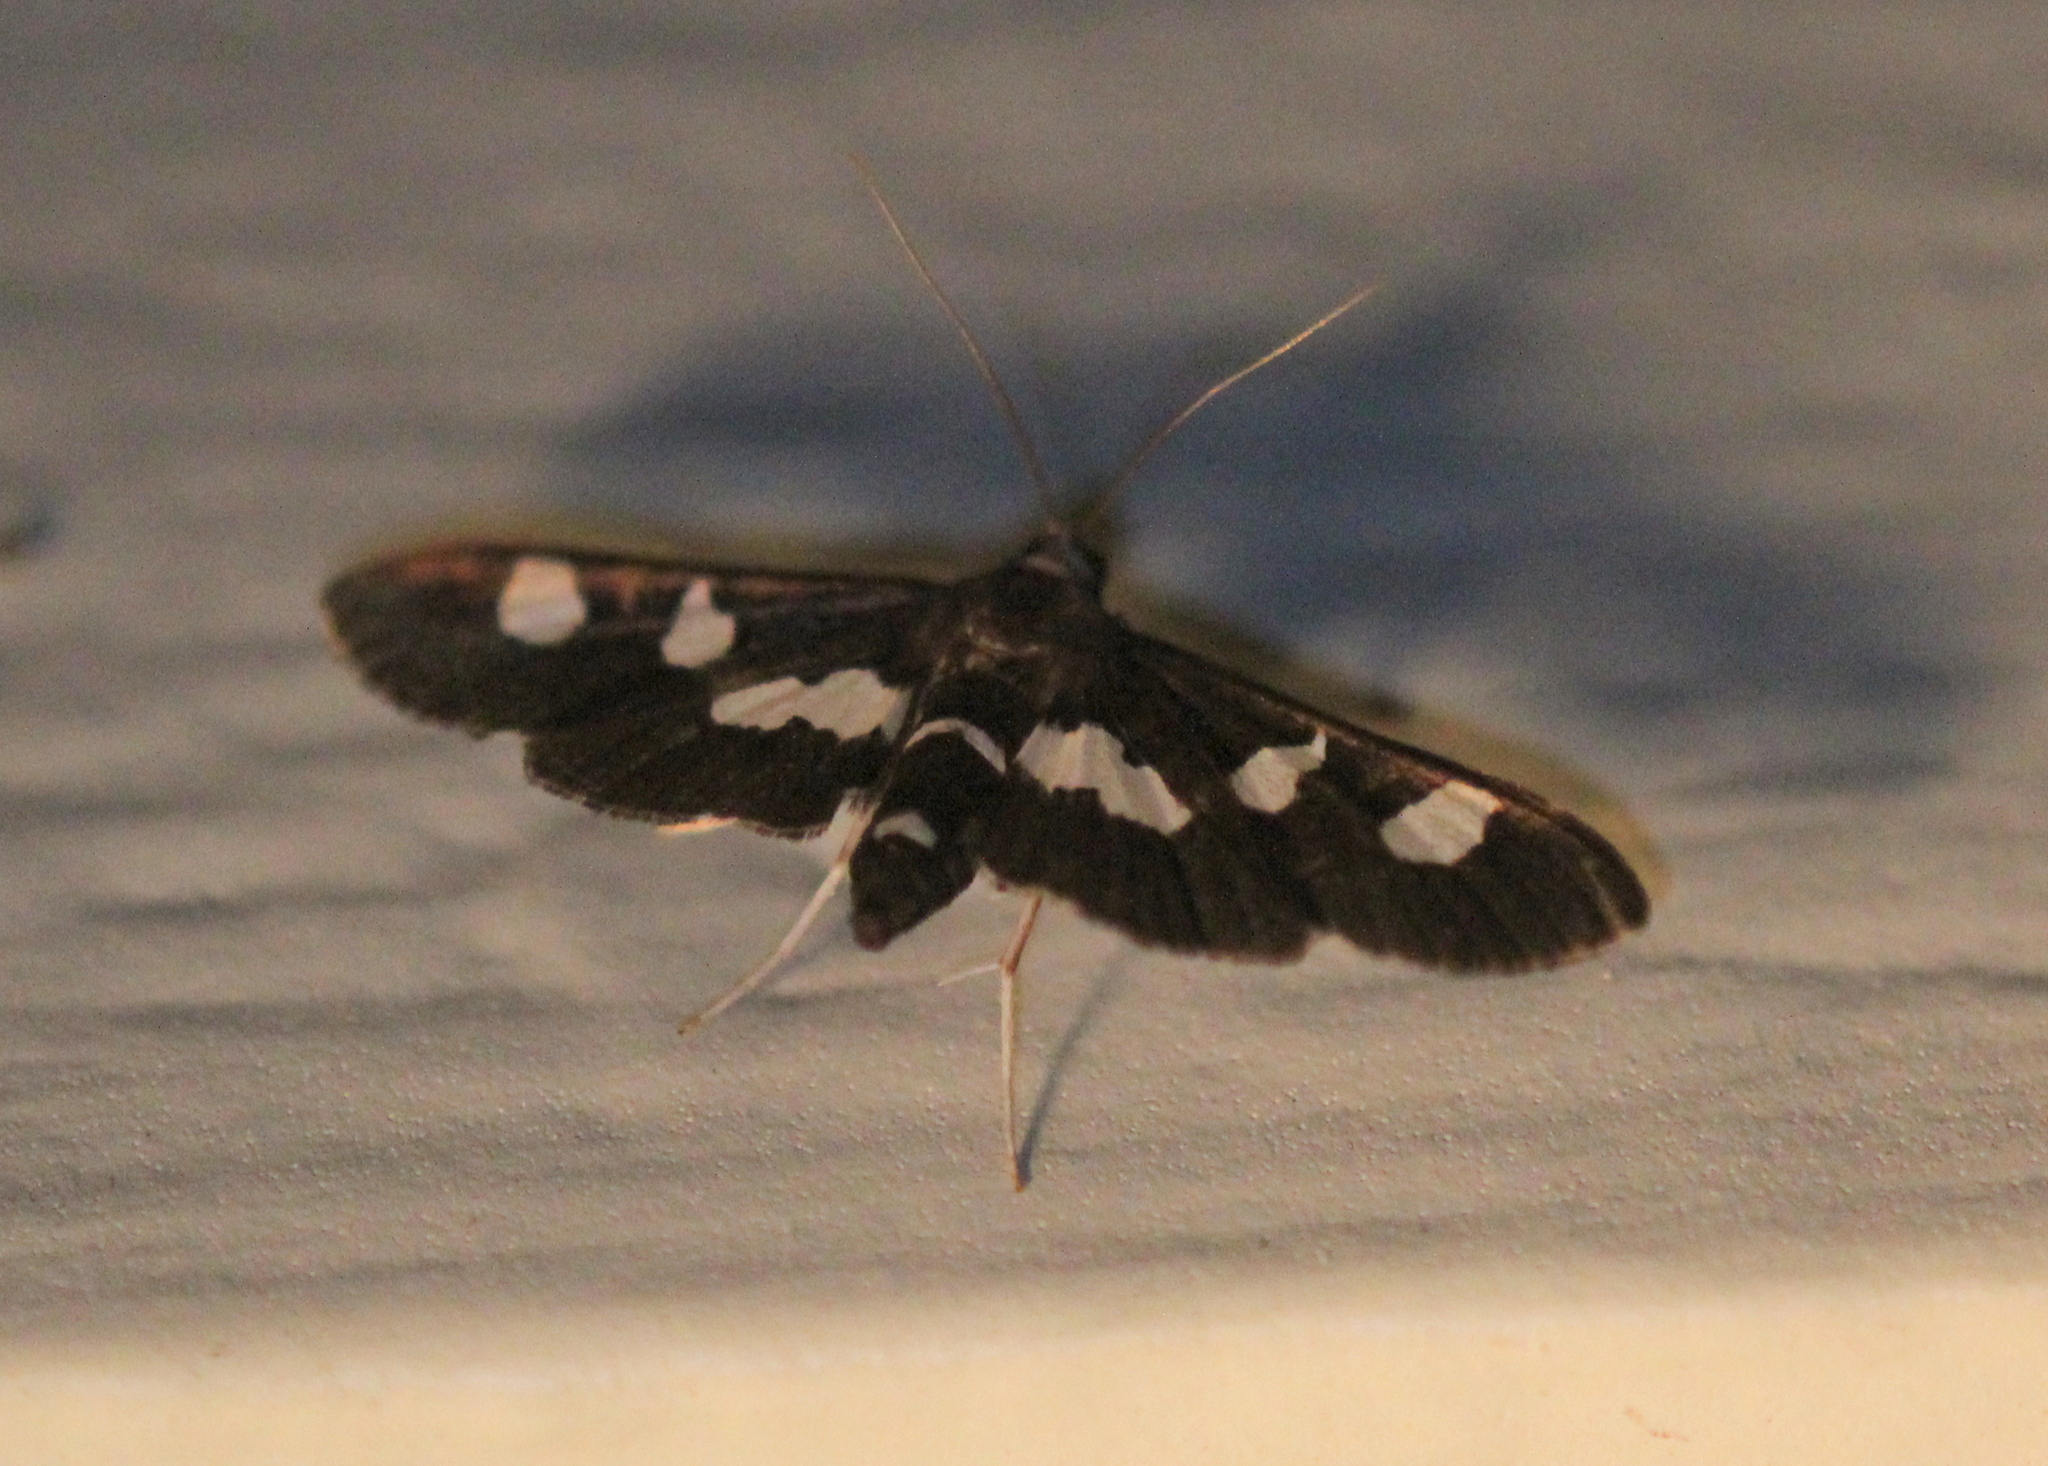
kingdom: Animalia
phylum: Arthropoda
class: Insecta
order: Lepidoptera
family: Crambidae
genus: Desmia
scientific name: Desmia
